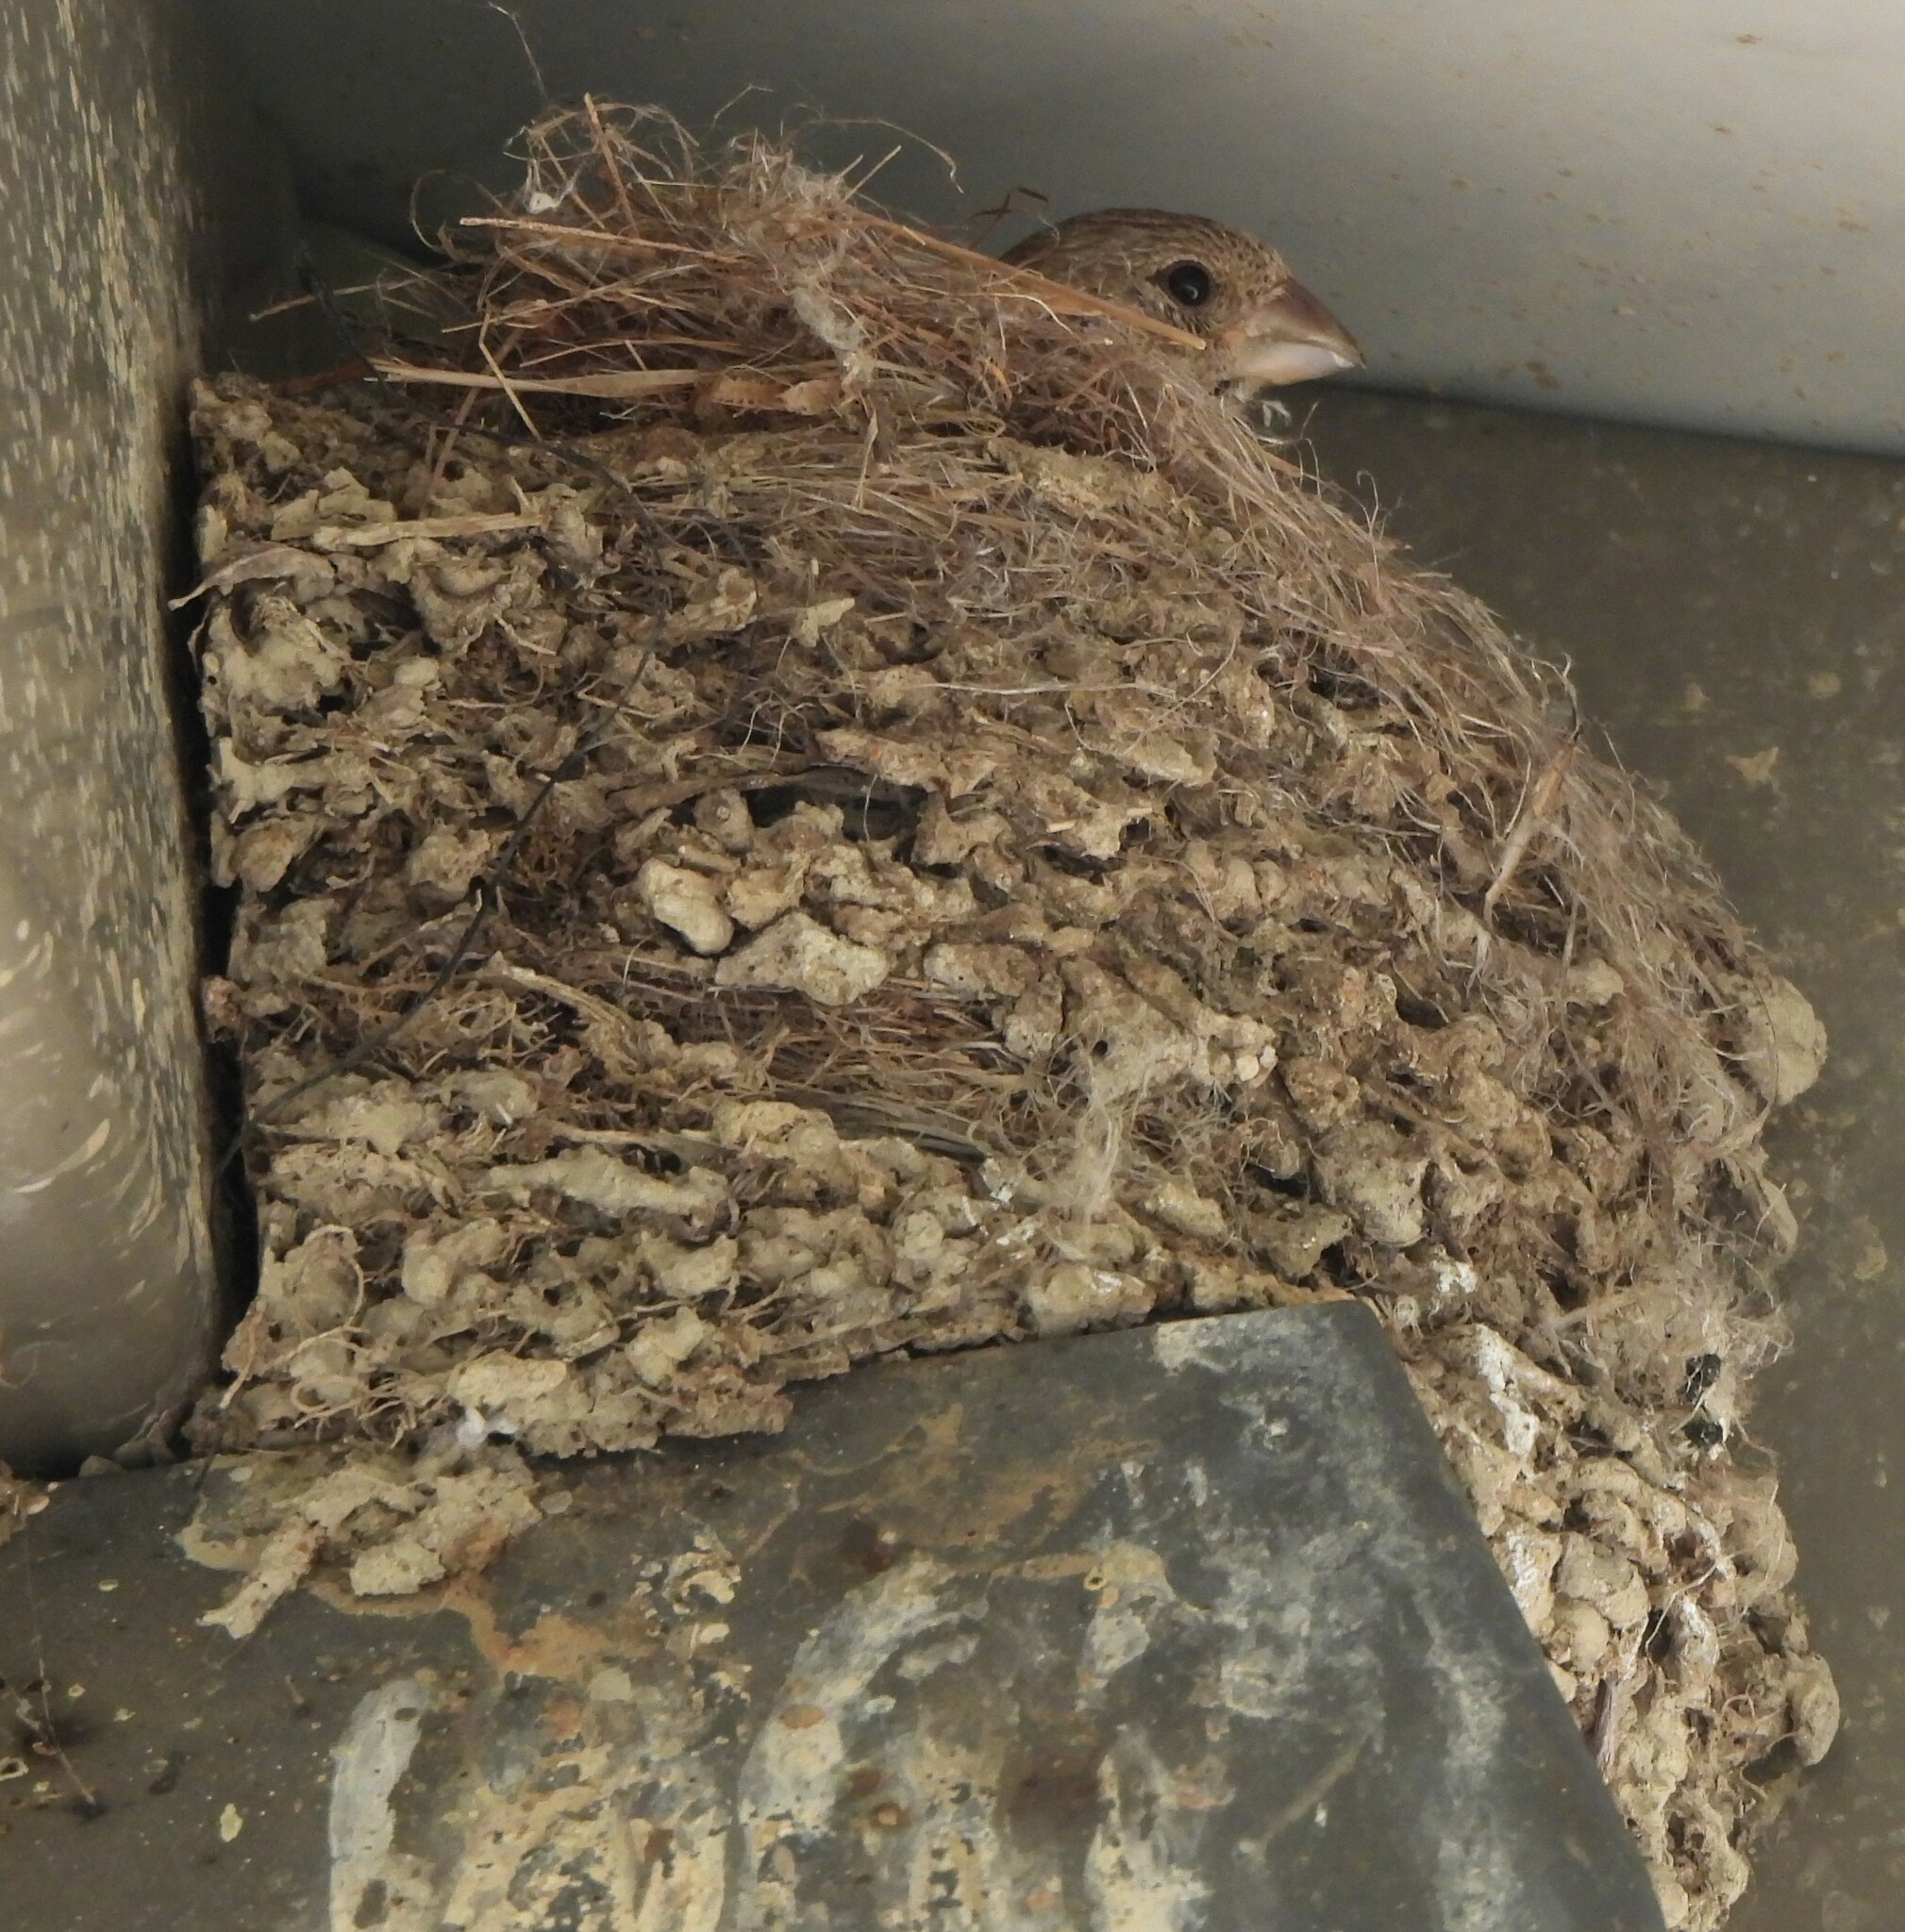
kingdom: Animalia
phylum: Chordata
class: Aves
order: Passeriformes
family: Fringillidae
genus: Haemorhous
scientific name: Haemorhous mexicanus
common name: House finch
